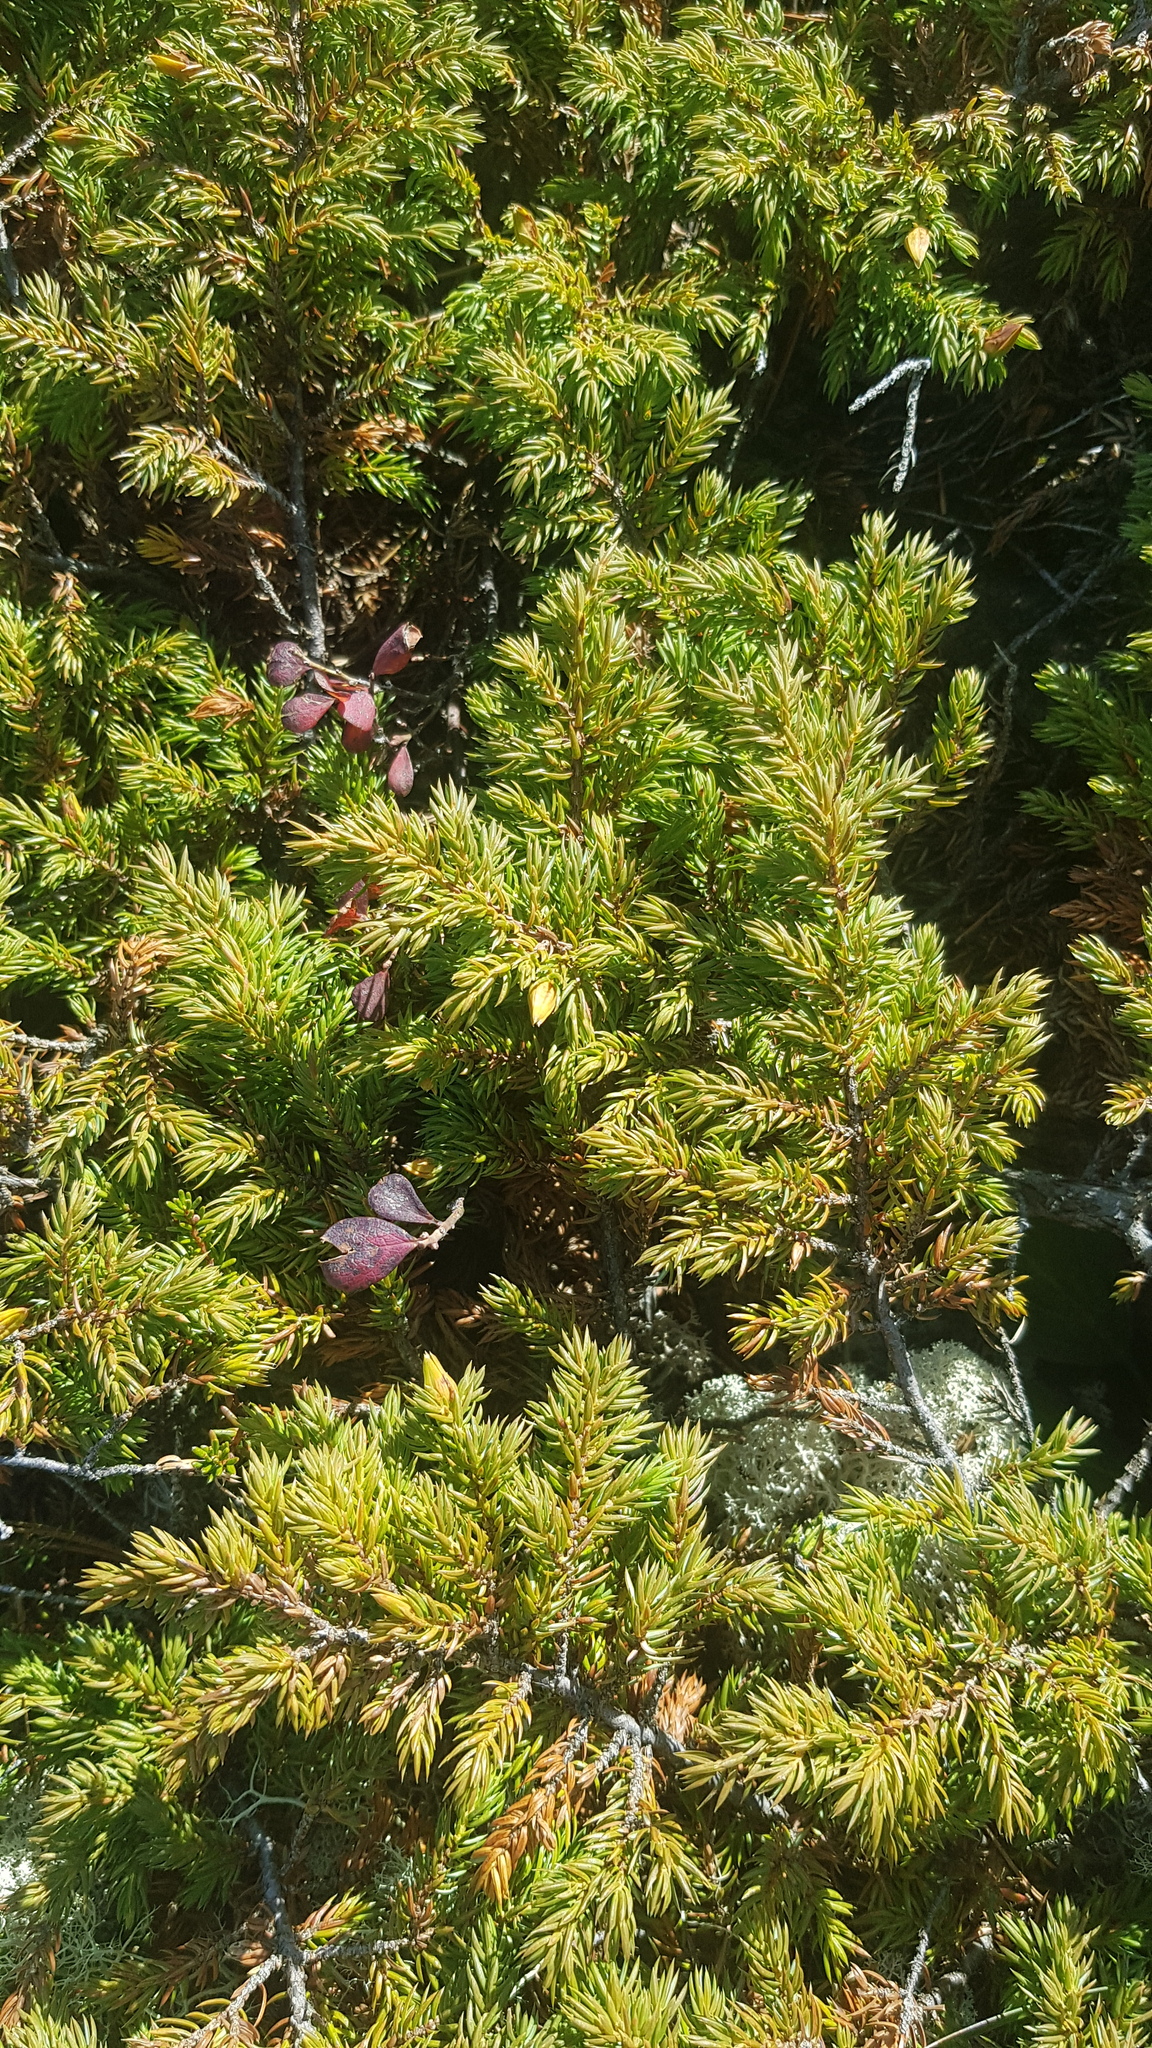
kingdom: Plantae
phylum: Tracheophyta
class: Pinopsida
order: Pinales
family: Cupressaceae
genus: Juniperus
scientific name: Juniperus communis
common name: Common juniper
